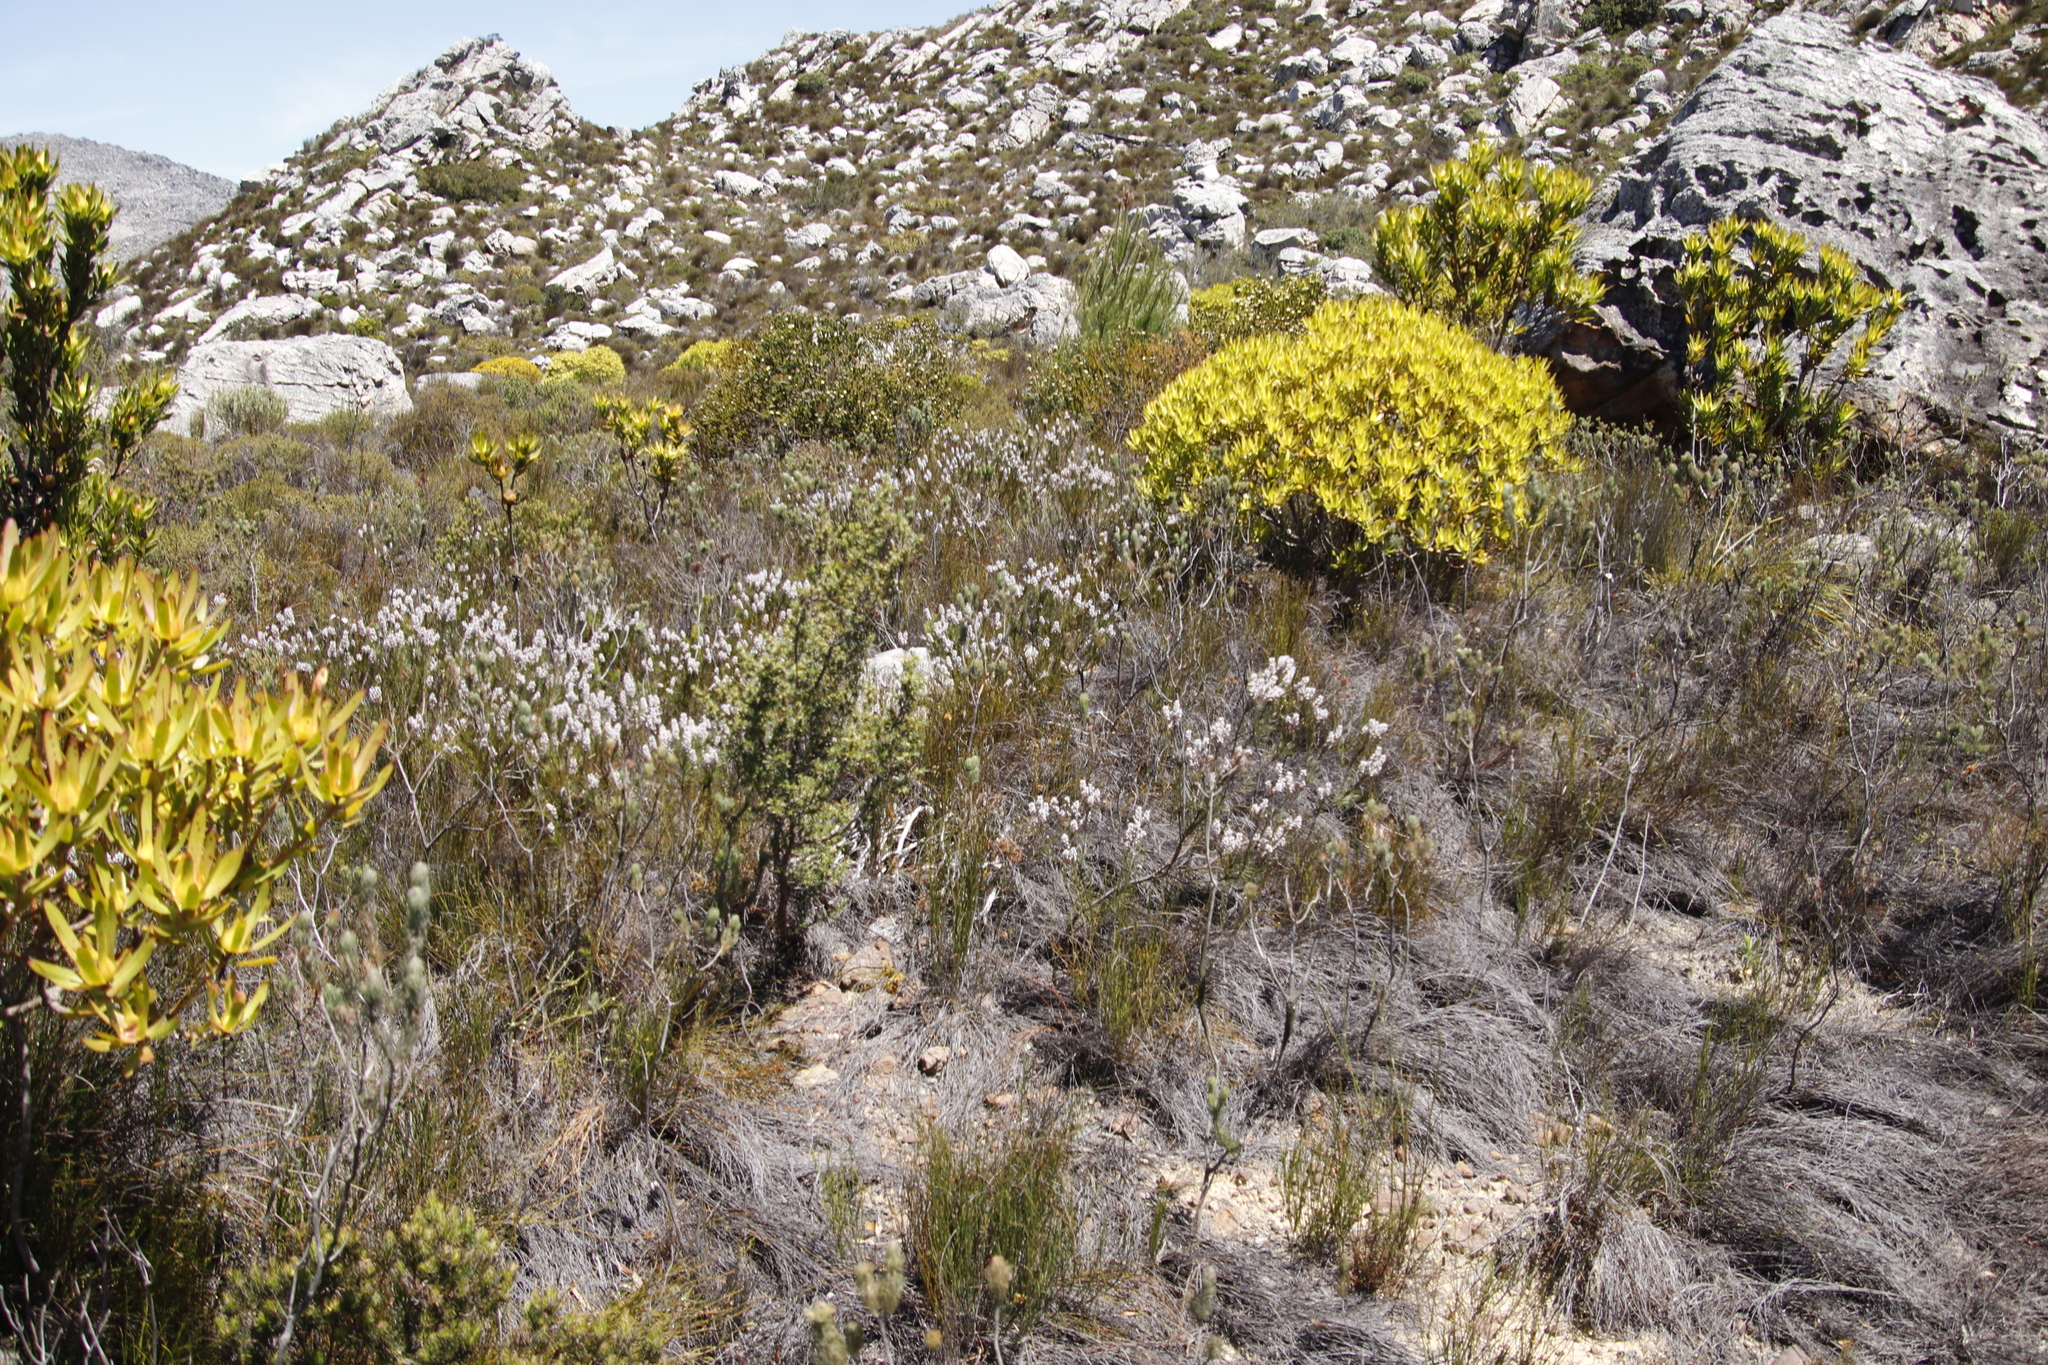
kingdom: Plantae
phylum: Tracheophyta
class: Magnoliopsida
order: Proteales
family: Proteaceae
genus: Spatalla
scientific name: Spatalla longifolia
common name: Pink-stalked spoon
